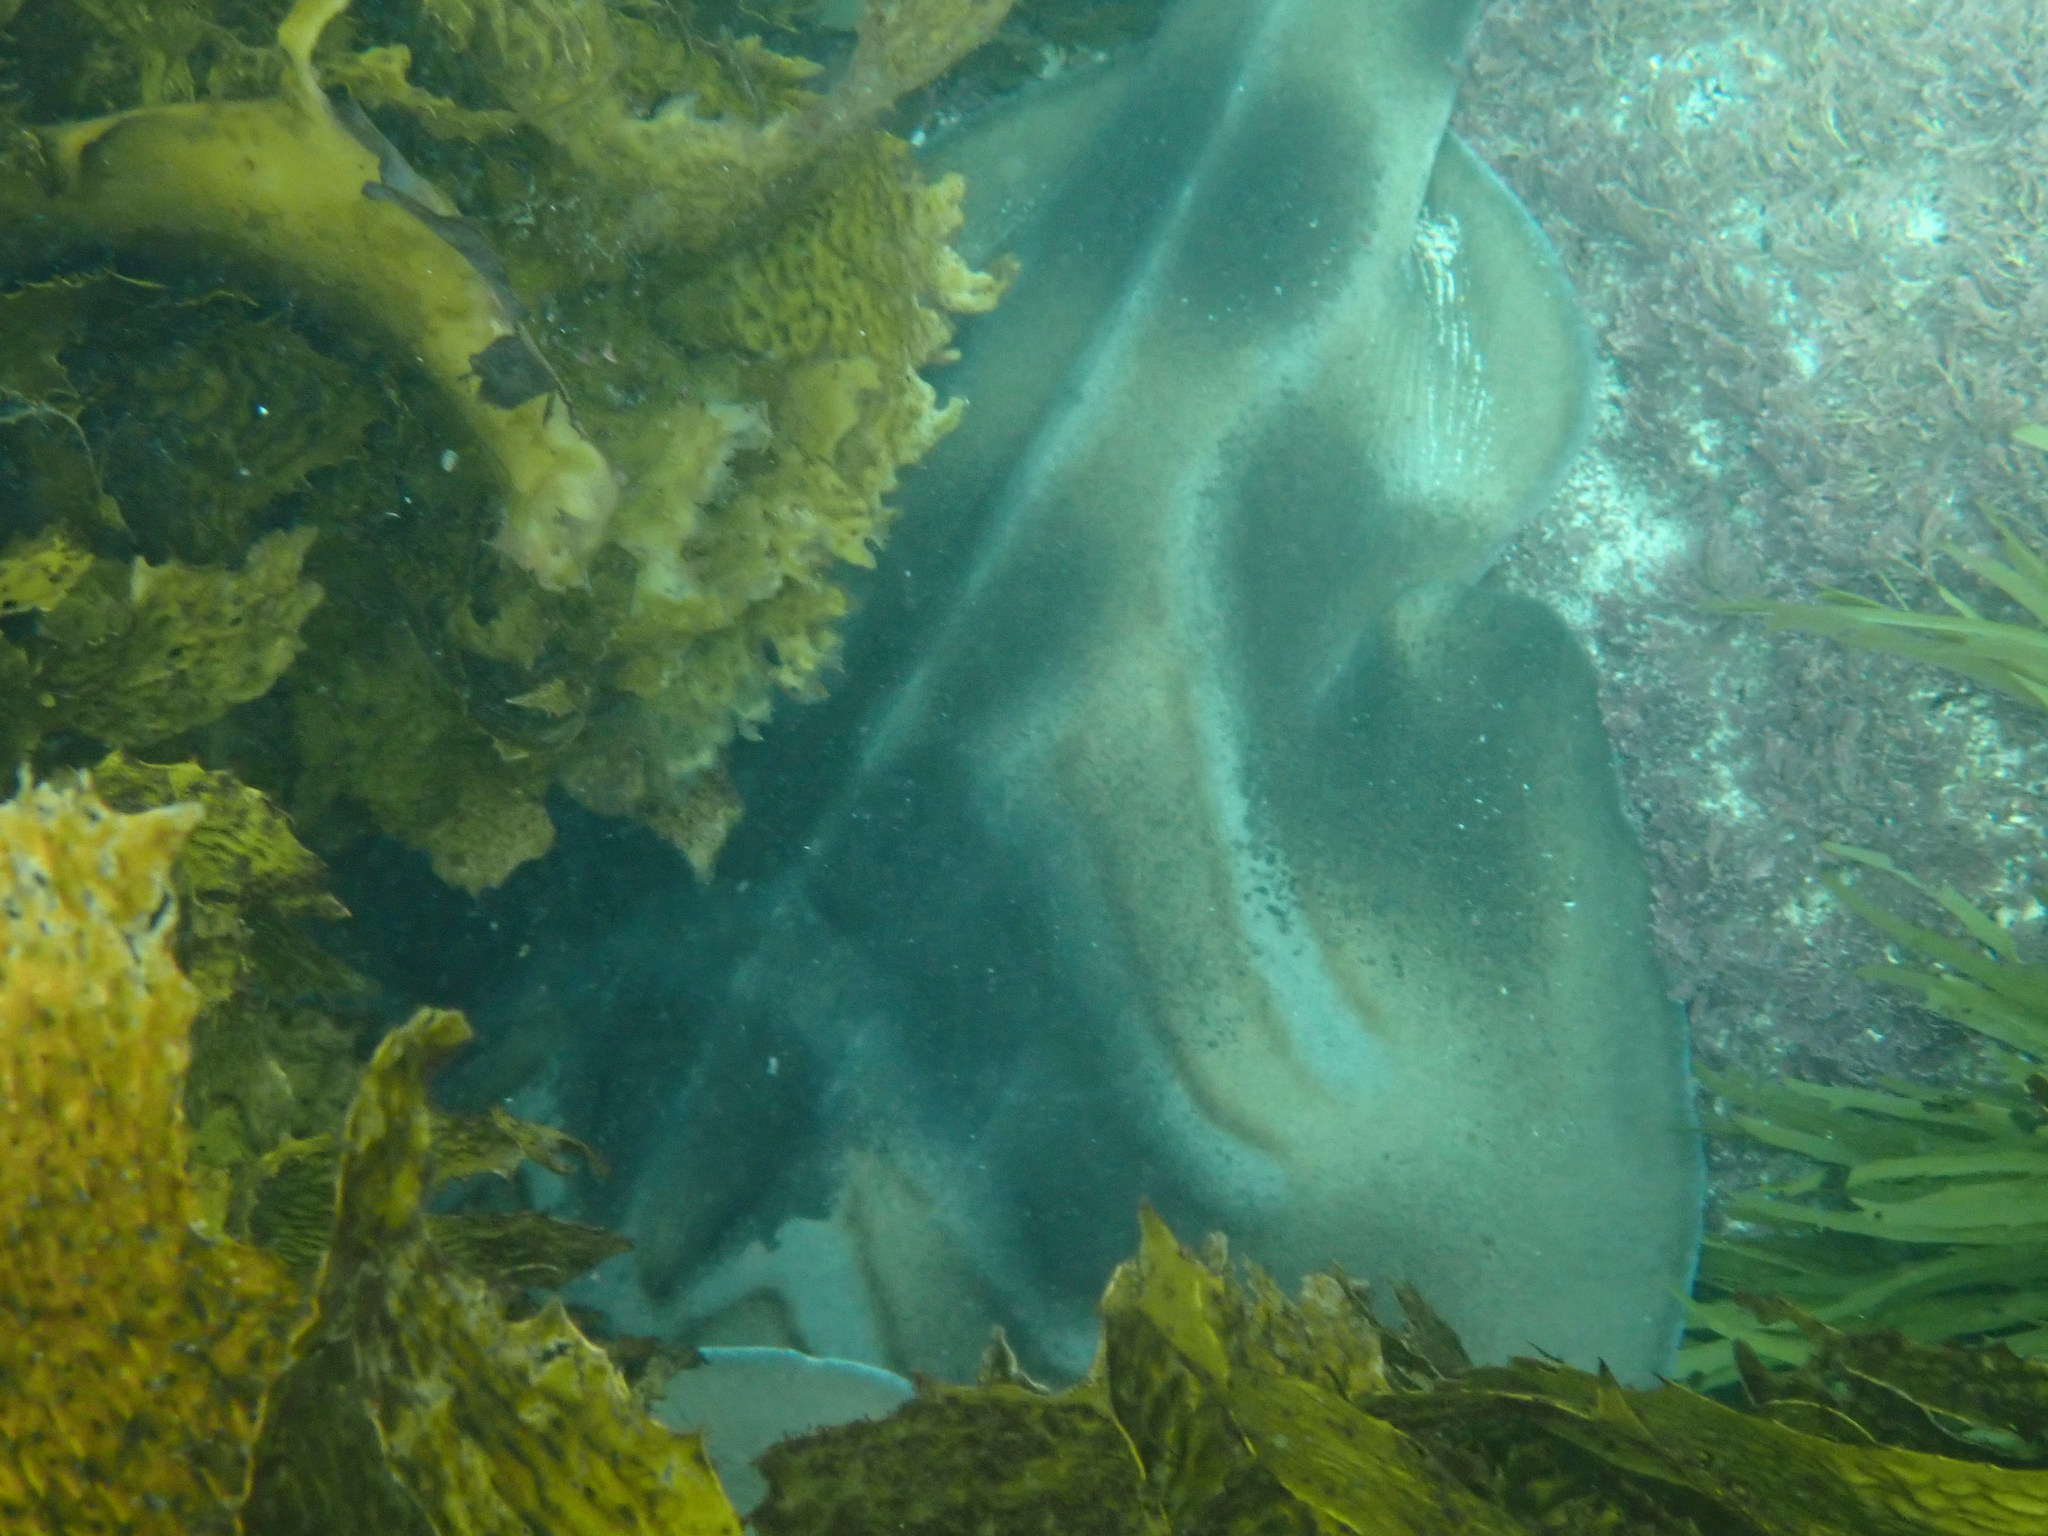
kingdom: Animalia
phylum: Chordata
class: Elasmobranchii
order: Rhinopristiformes
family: Rhinobatidae
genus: Trygonorrhina
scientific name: Trygonorrhina fasciata
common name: Southern fiddler
